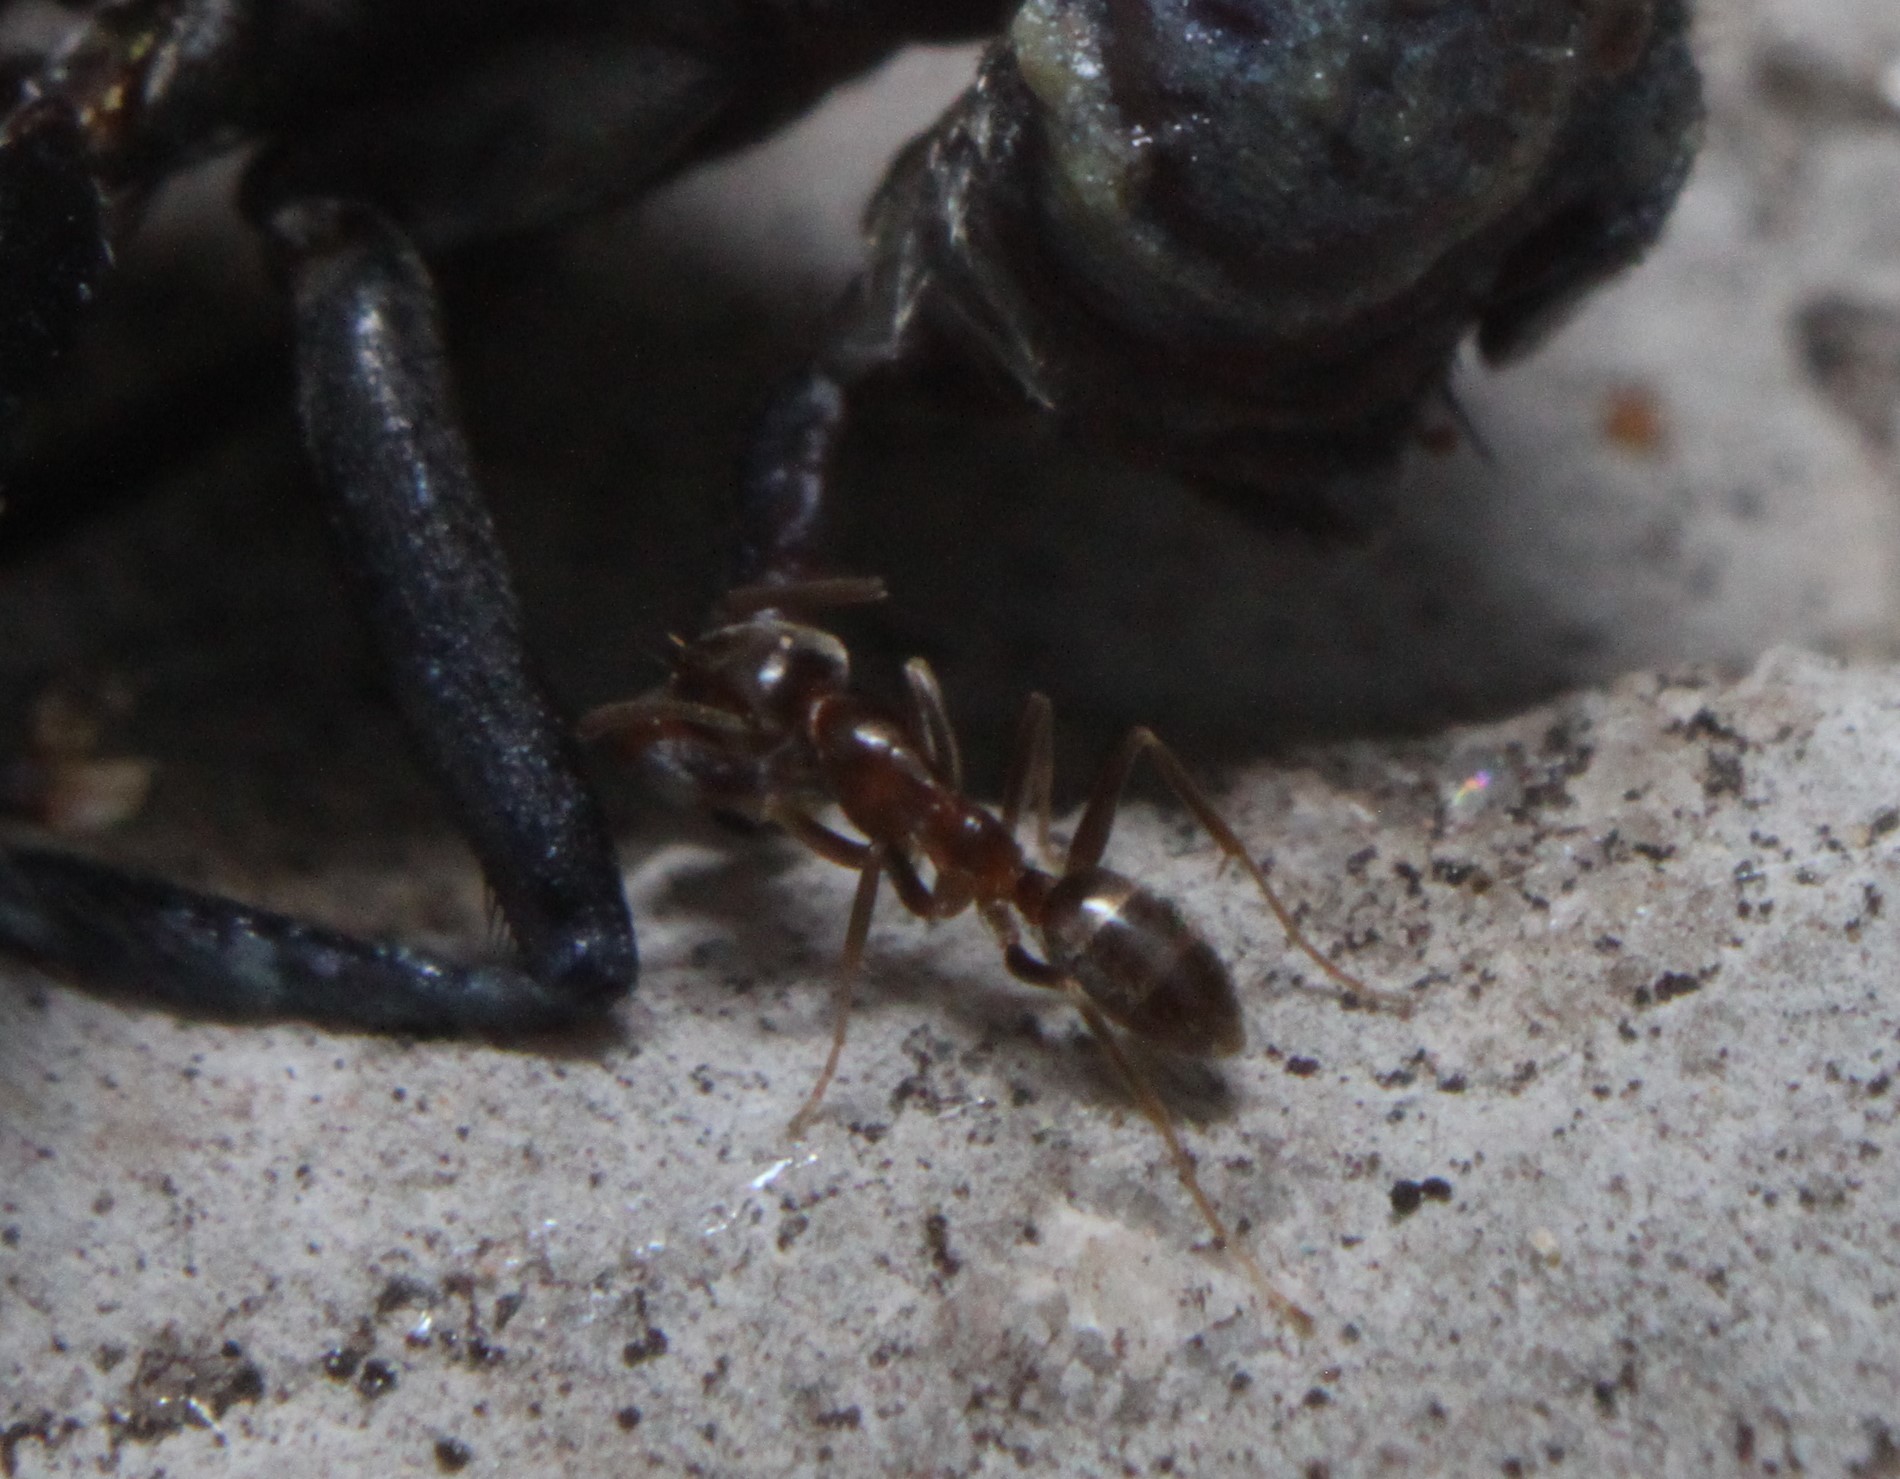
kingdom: Animalia
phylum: Arthropoda
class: Insecta
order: Hymenoptera
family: Formicidae
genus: Linepithema
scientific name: Linepithema humile
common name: Argentine ant
